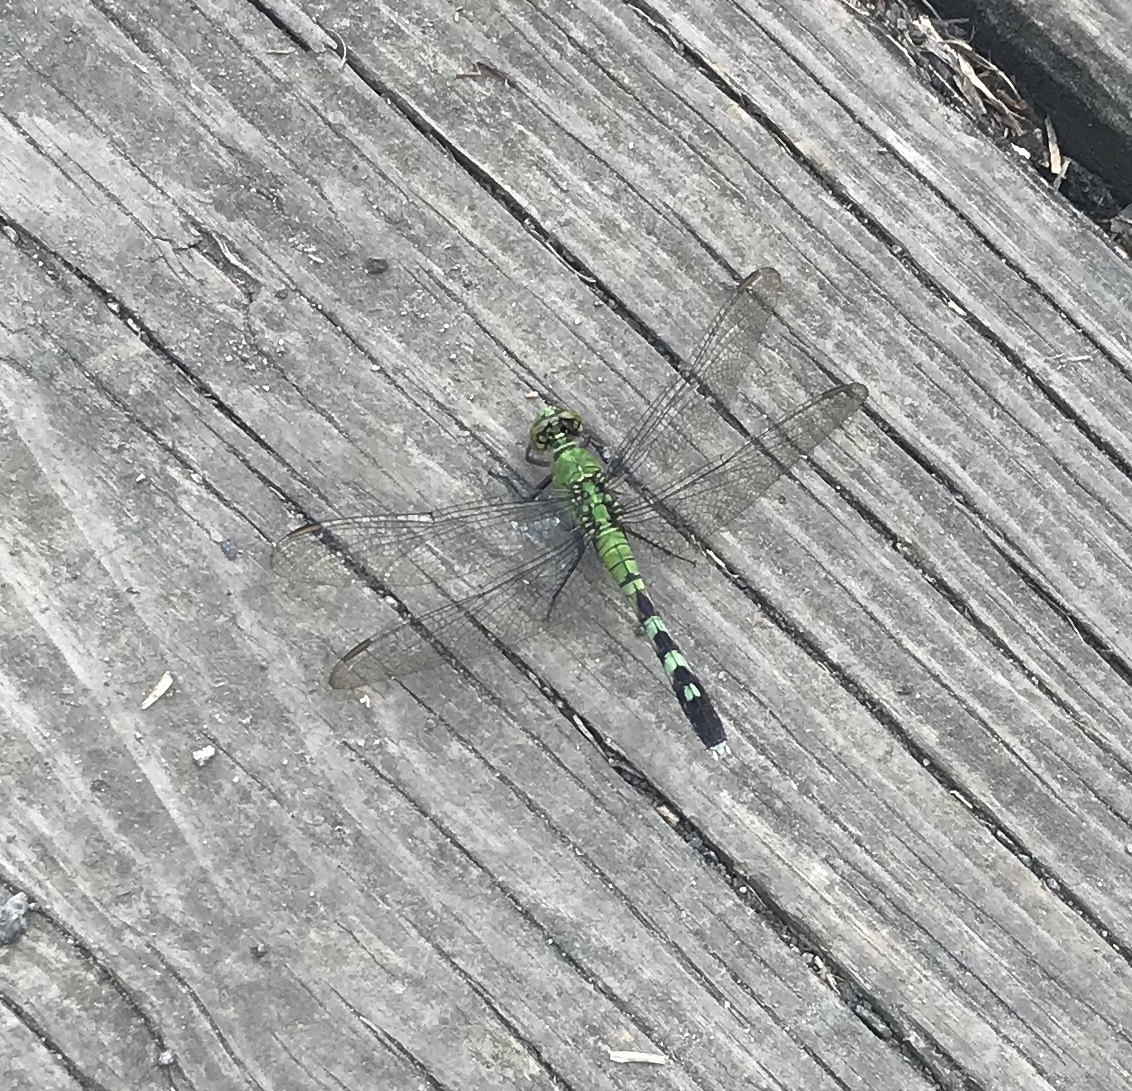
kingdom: Animalia
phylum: Arthropoda
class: Insecta
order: Odonata
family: Libellulidae
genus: Erythemis
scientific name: Erythemis simplicicollis
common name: Eastern pondhawk
